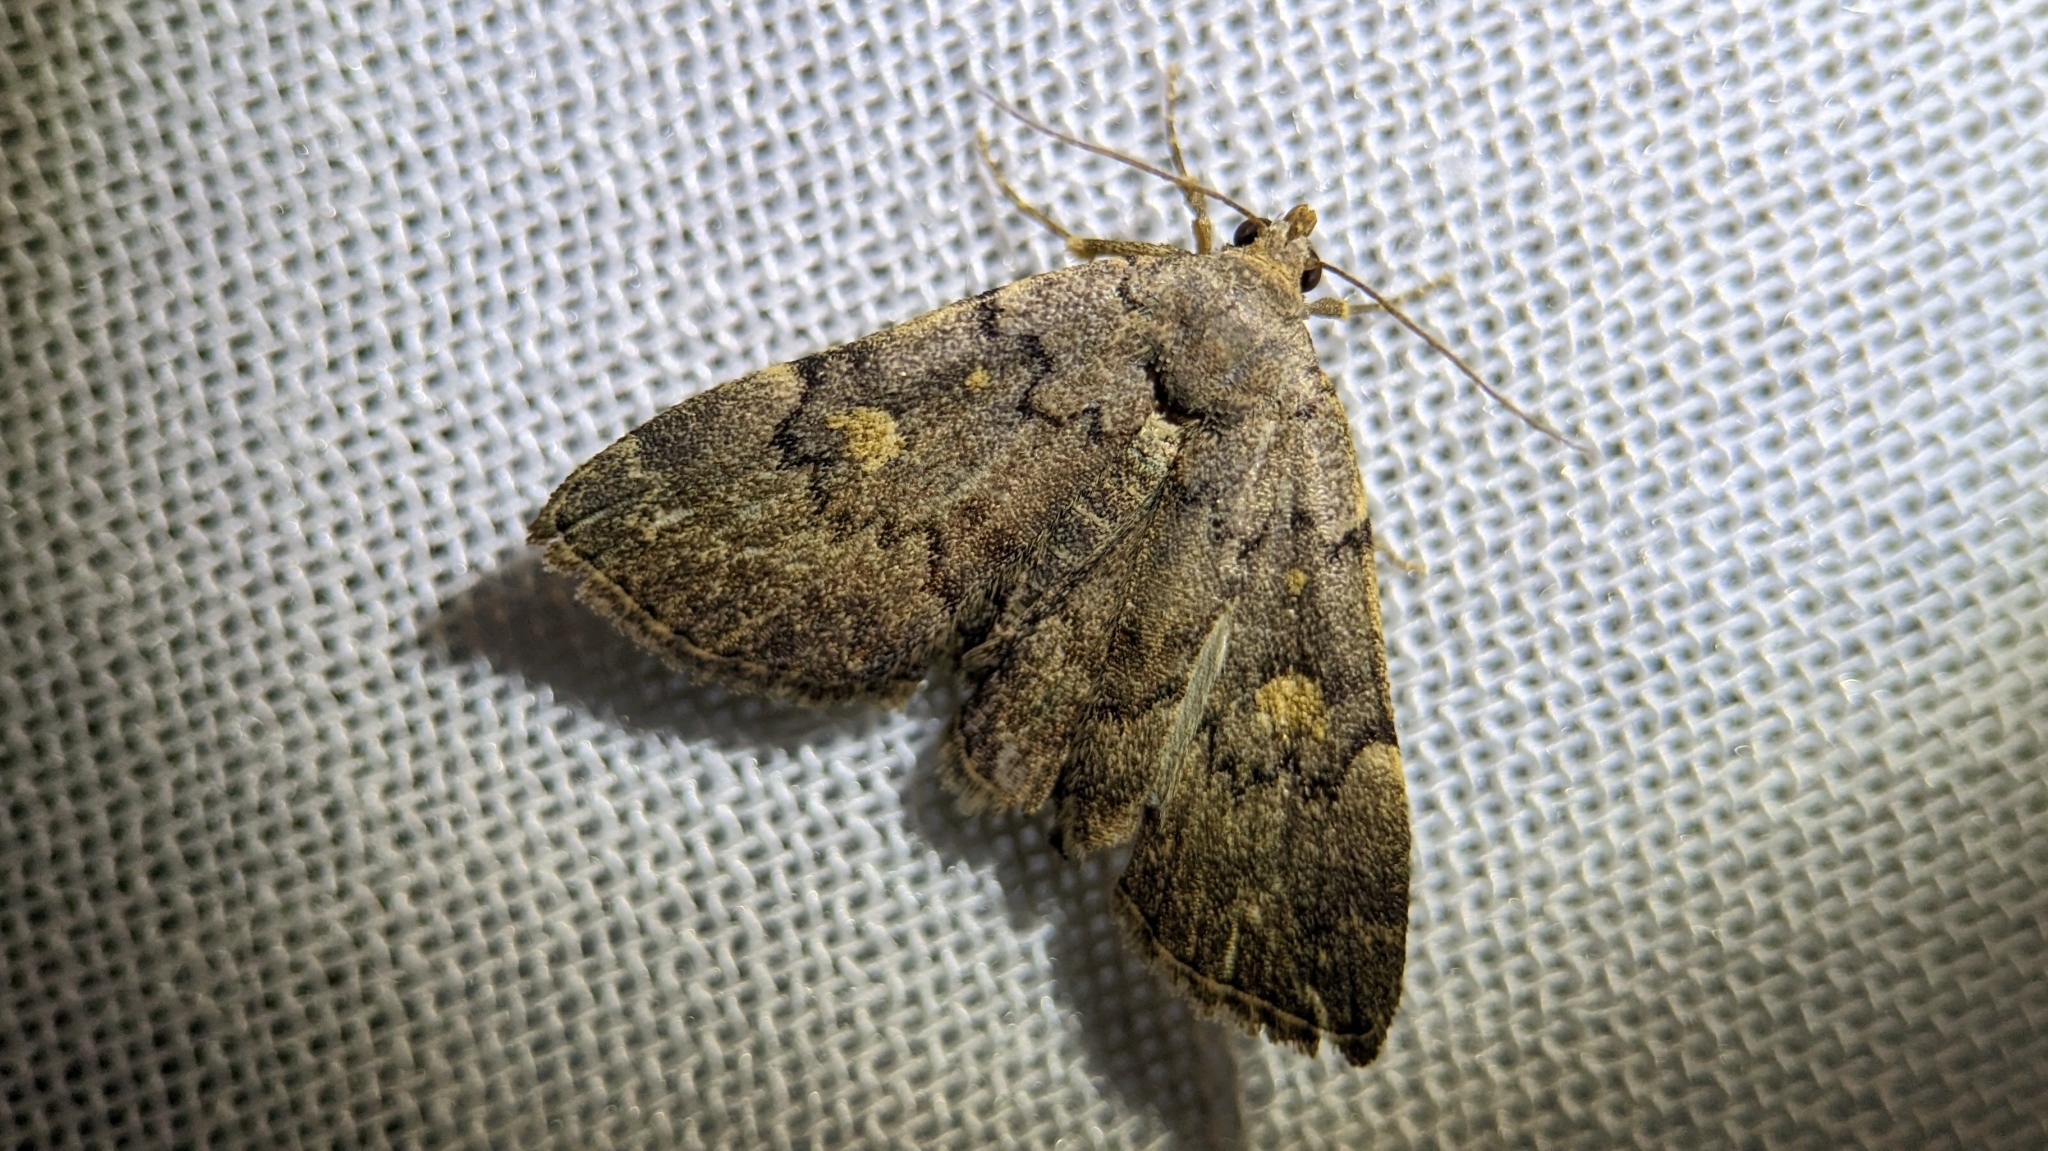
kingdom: Animalia
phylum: Arthropoda
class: Insecta
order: Lepidoptera
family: Erebidae
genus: Idia
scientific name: Idia aemula
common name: Common idia moth
